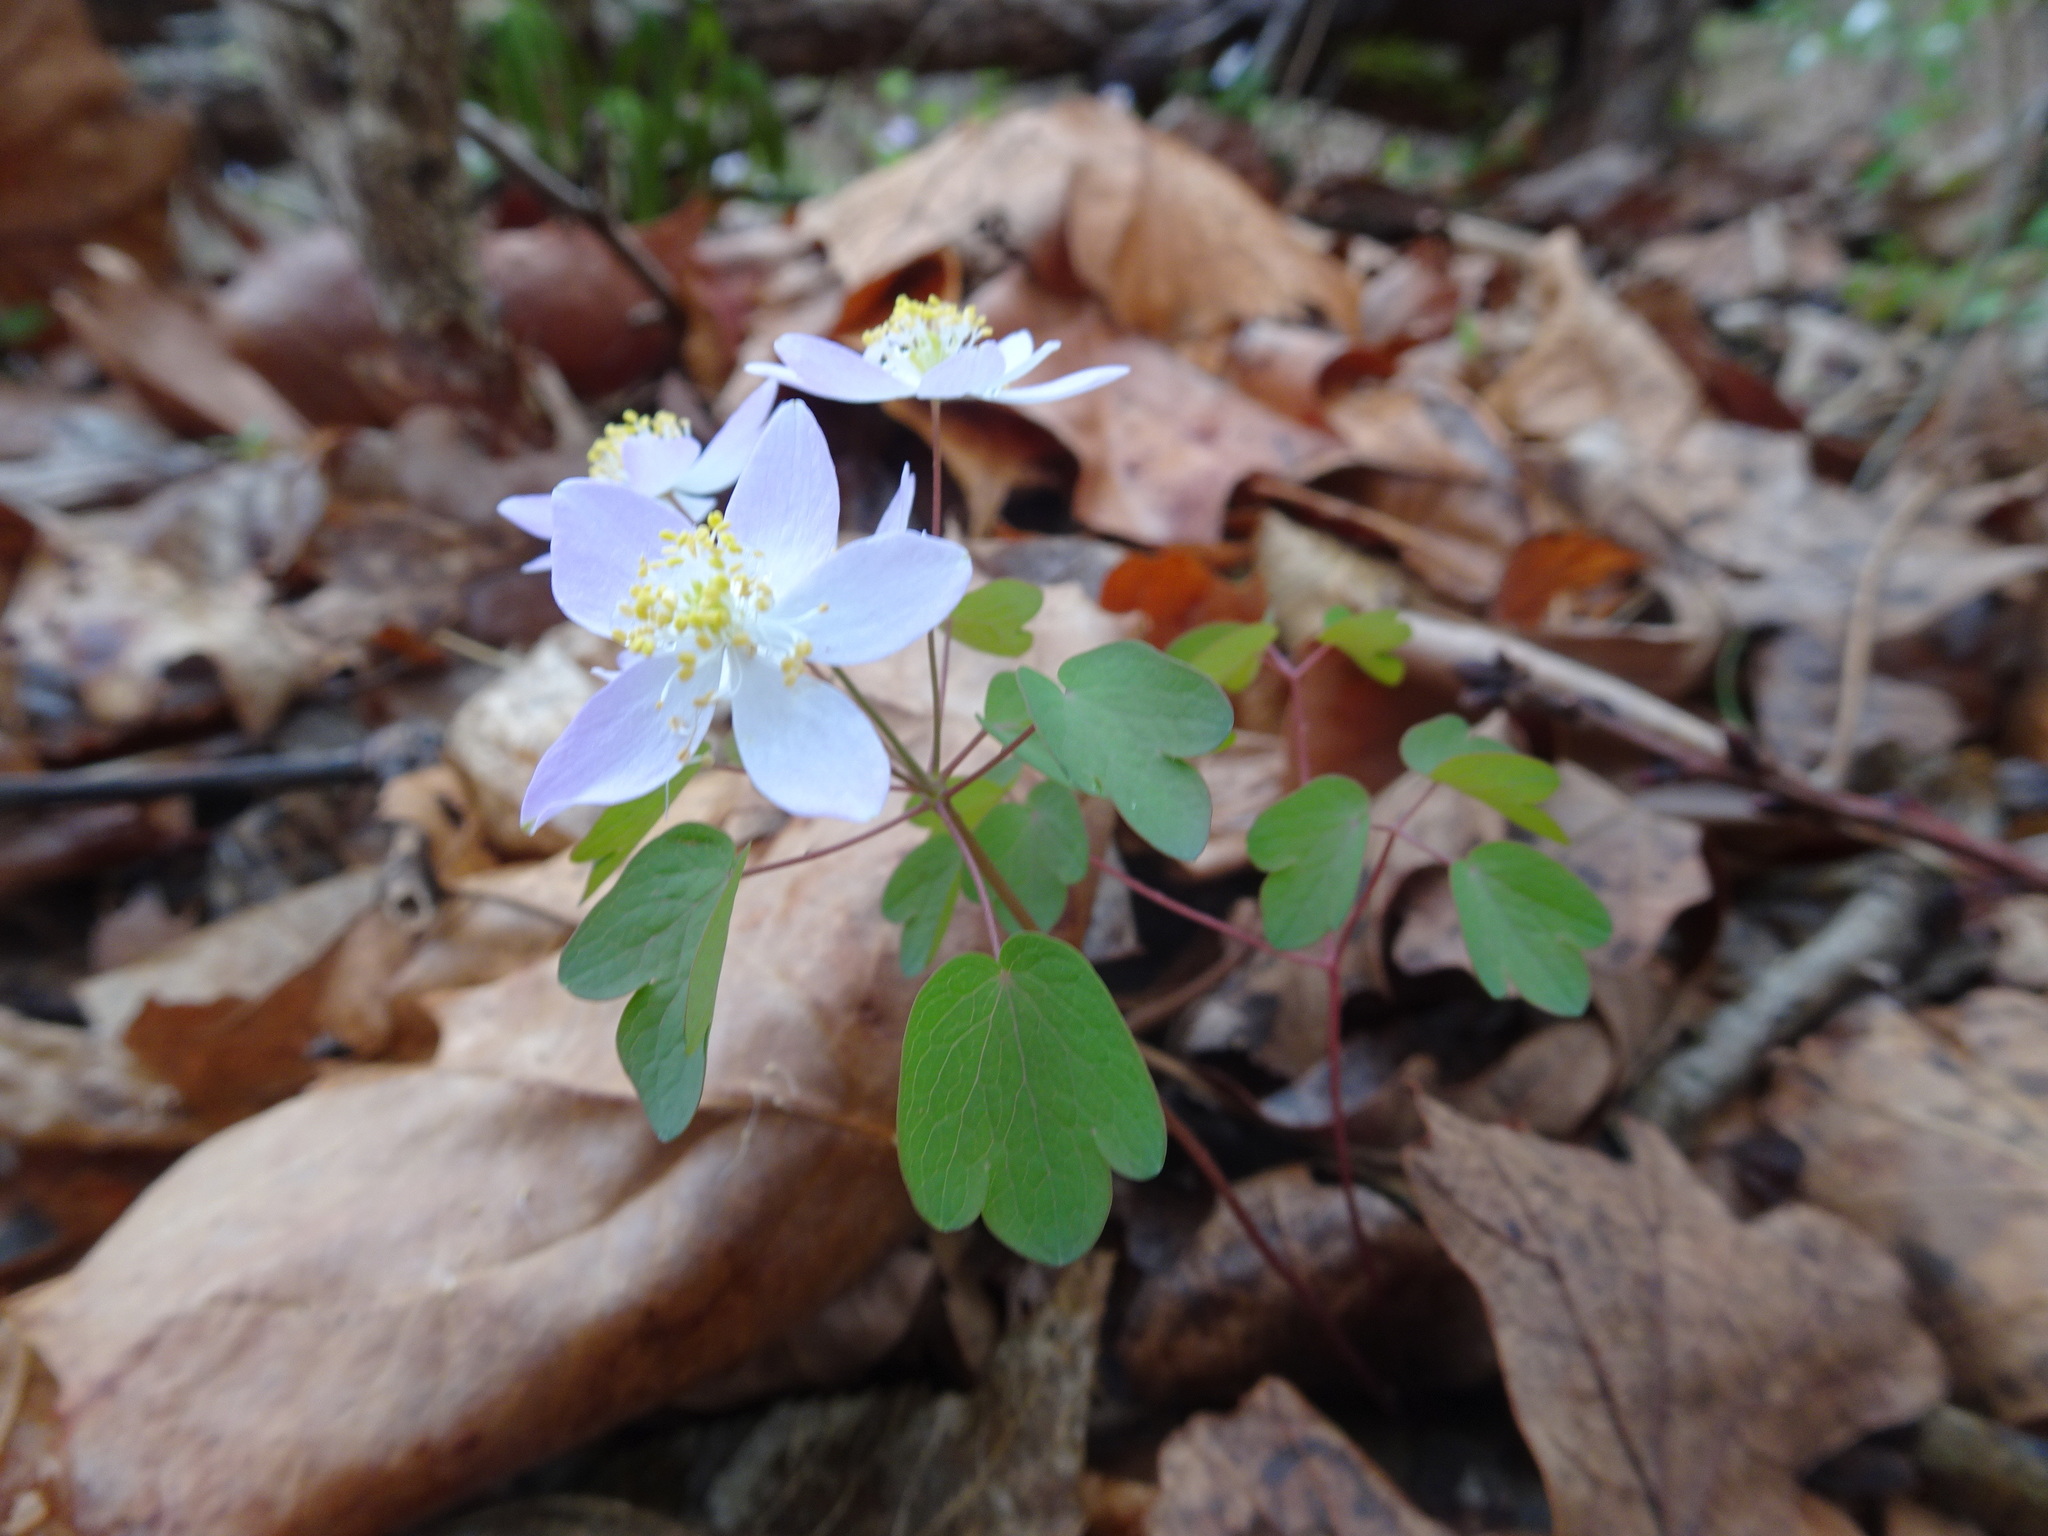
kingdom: Plantae
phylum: Tracheophyta
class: Magnoliopsida
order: Ranunculales
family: Ranunculaceae
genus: Thalictrum
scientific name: Thalictrum thalictroides
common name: Rue-anemone
